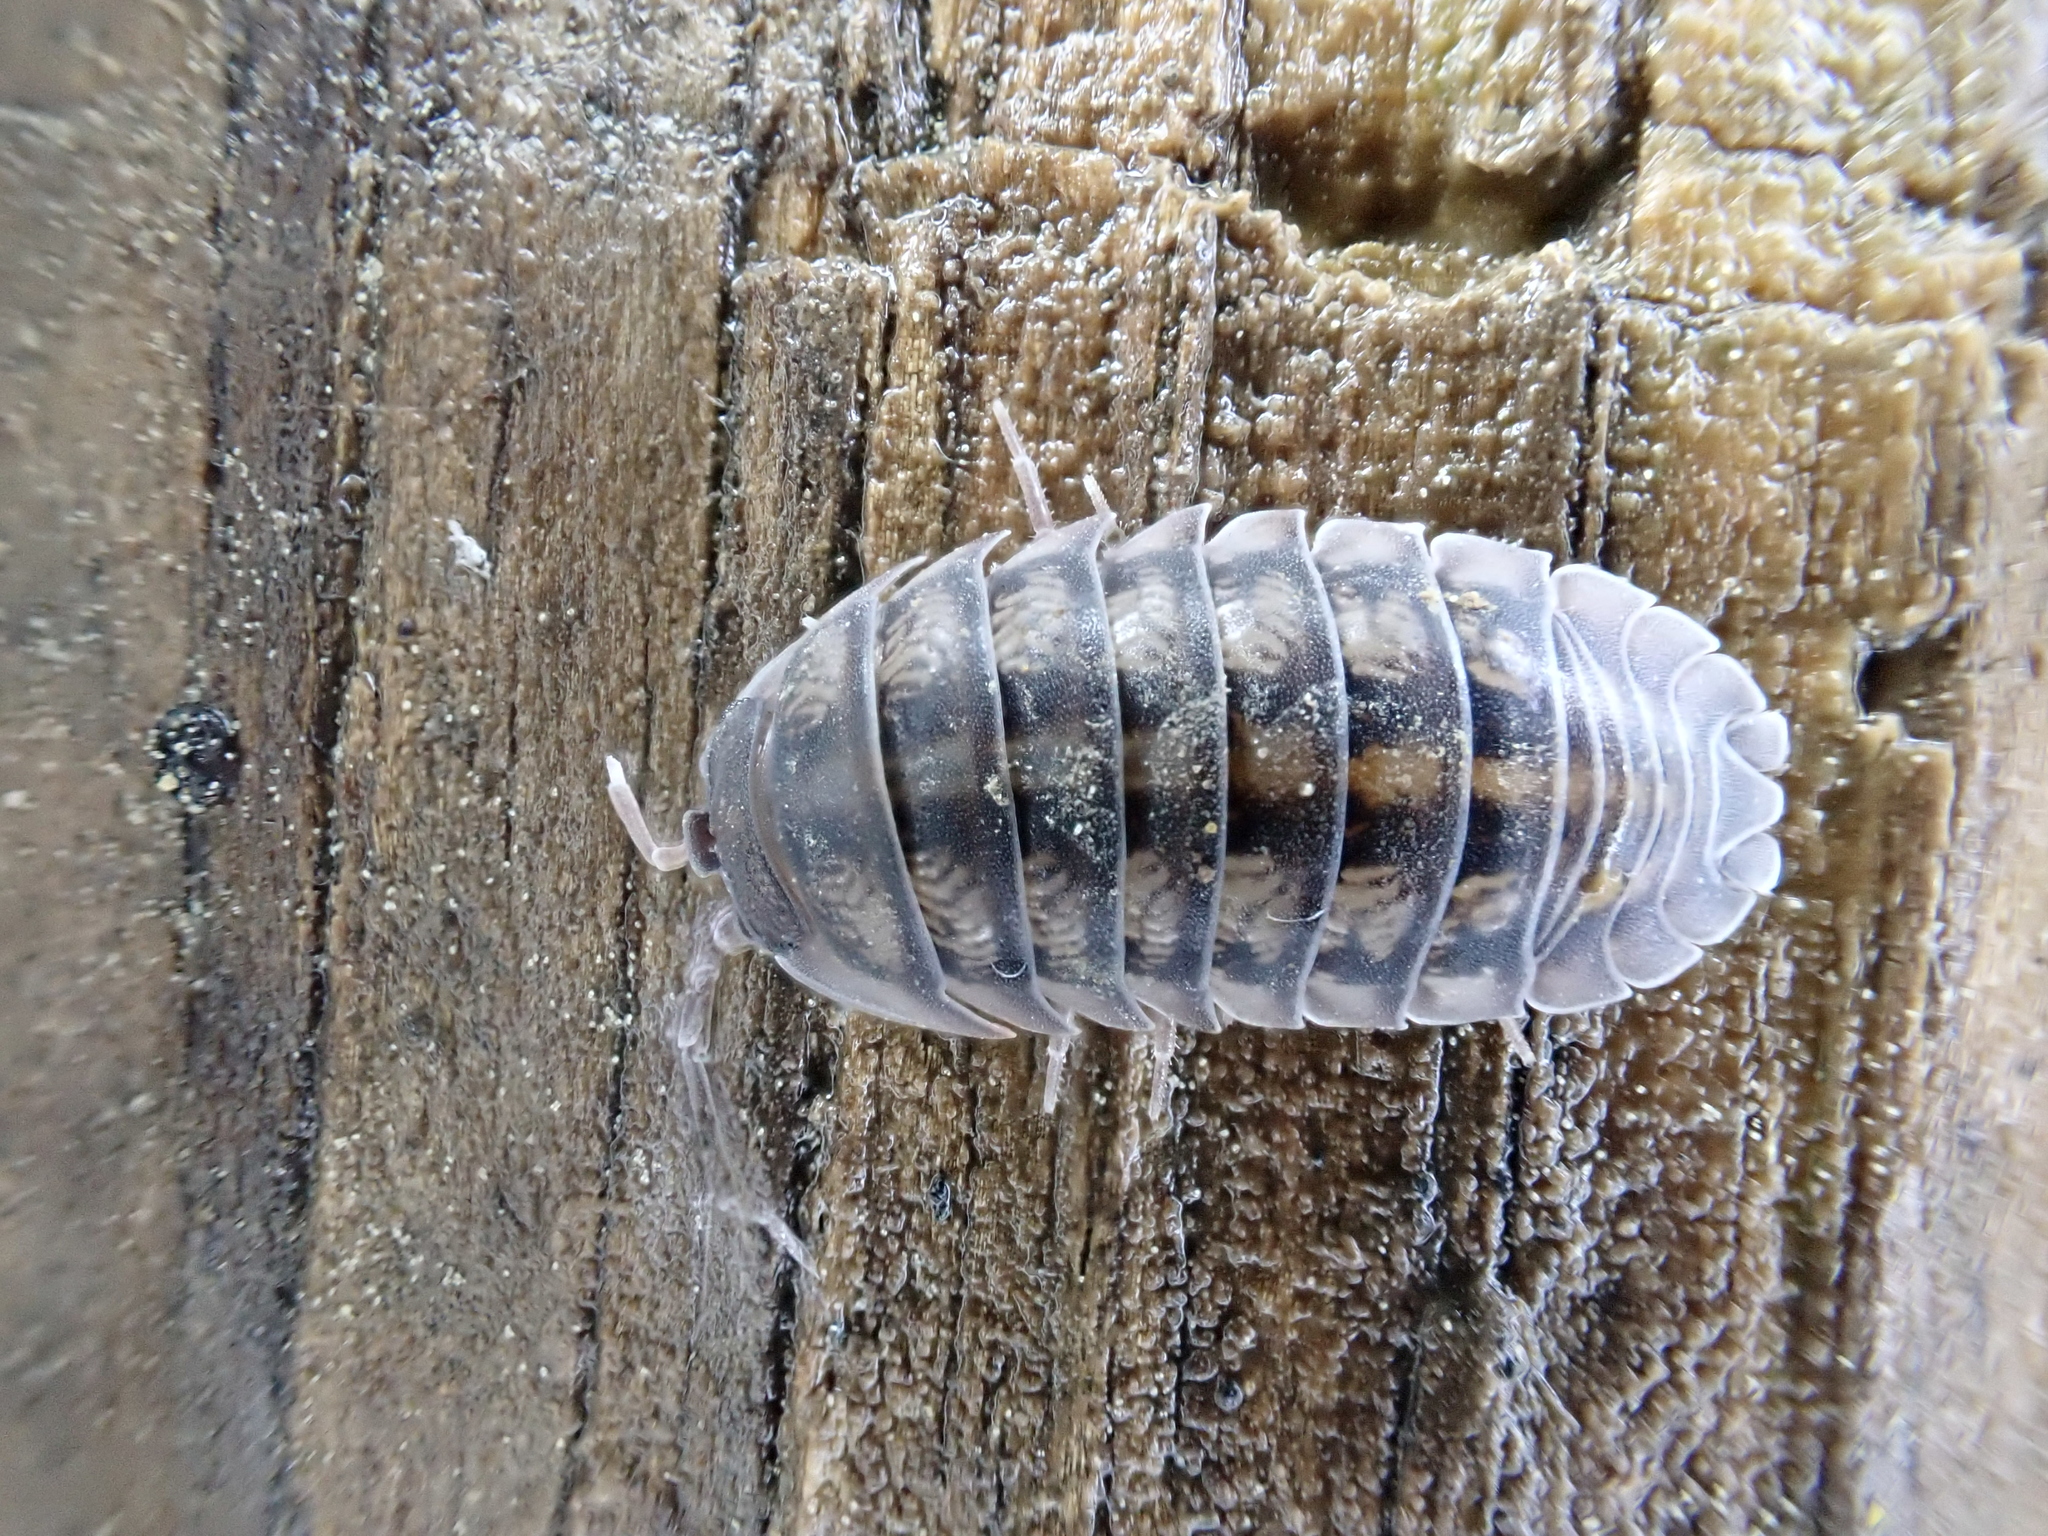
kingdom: Animalia
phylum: Arthropoda
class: Malacostraca
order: Isopoda
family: Armadillidiidae
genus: Armadillidium
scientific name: Armadillidium nasatum
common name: Isopod
